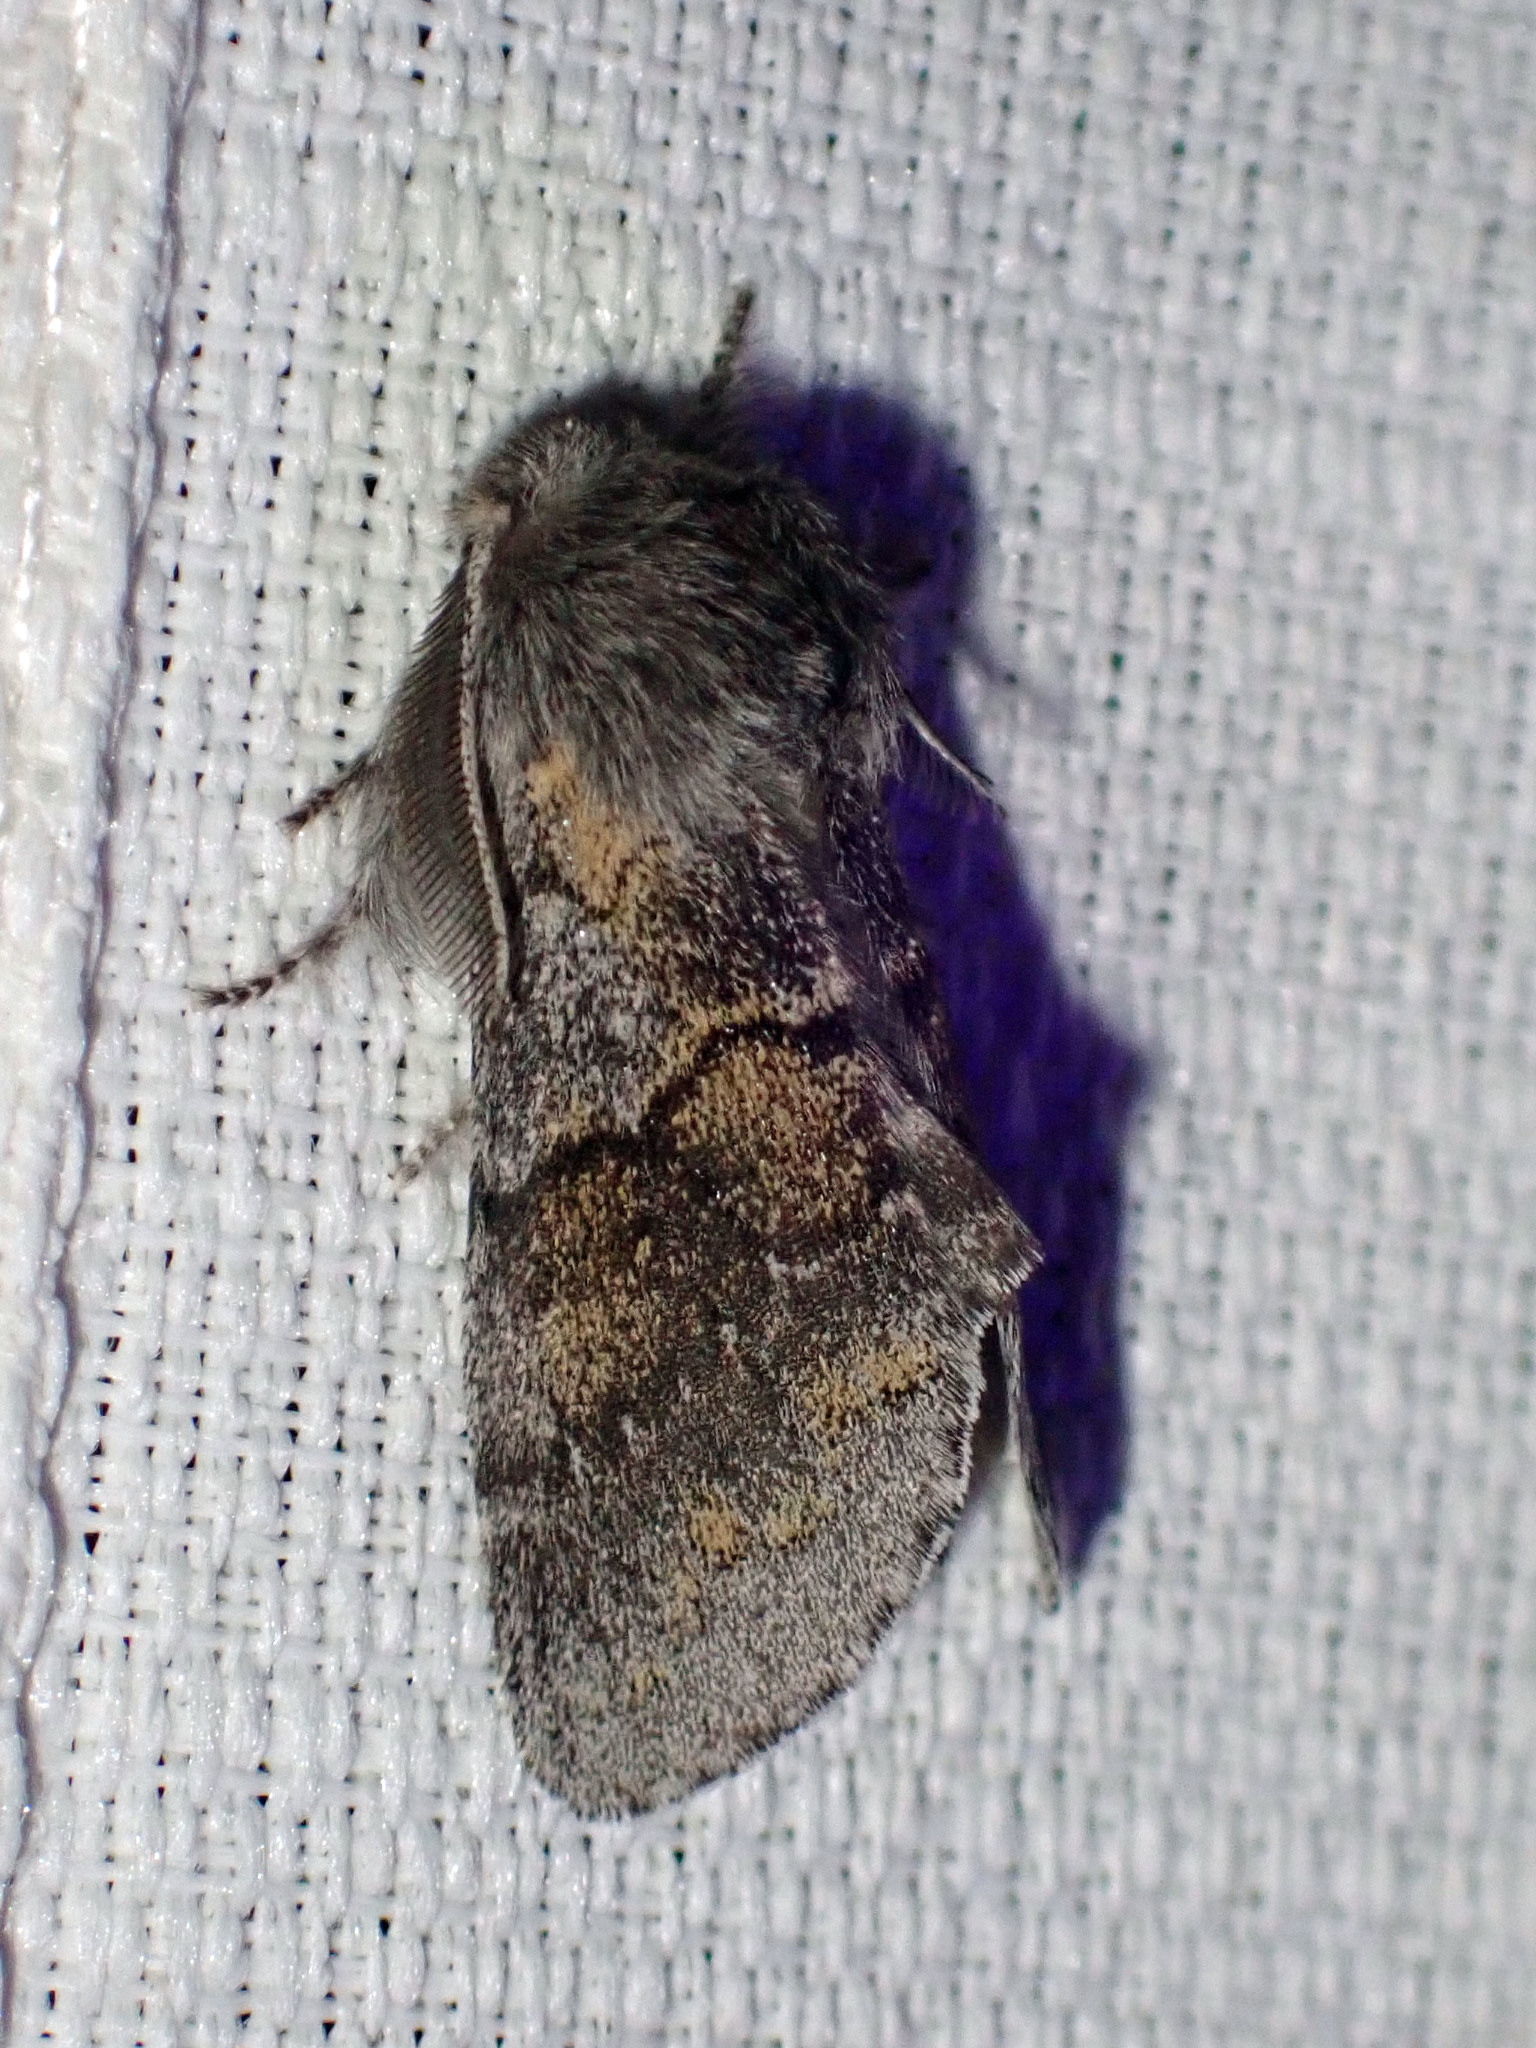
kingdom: Animalia
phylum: Arthropoda
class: Insecta
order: Lepidoptera
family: Notodontidae
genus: Gluphisia
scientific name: Gluphisia lintneri
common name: Lintner's gluphisia moth
